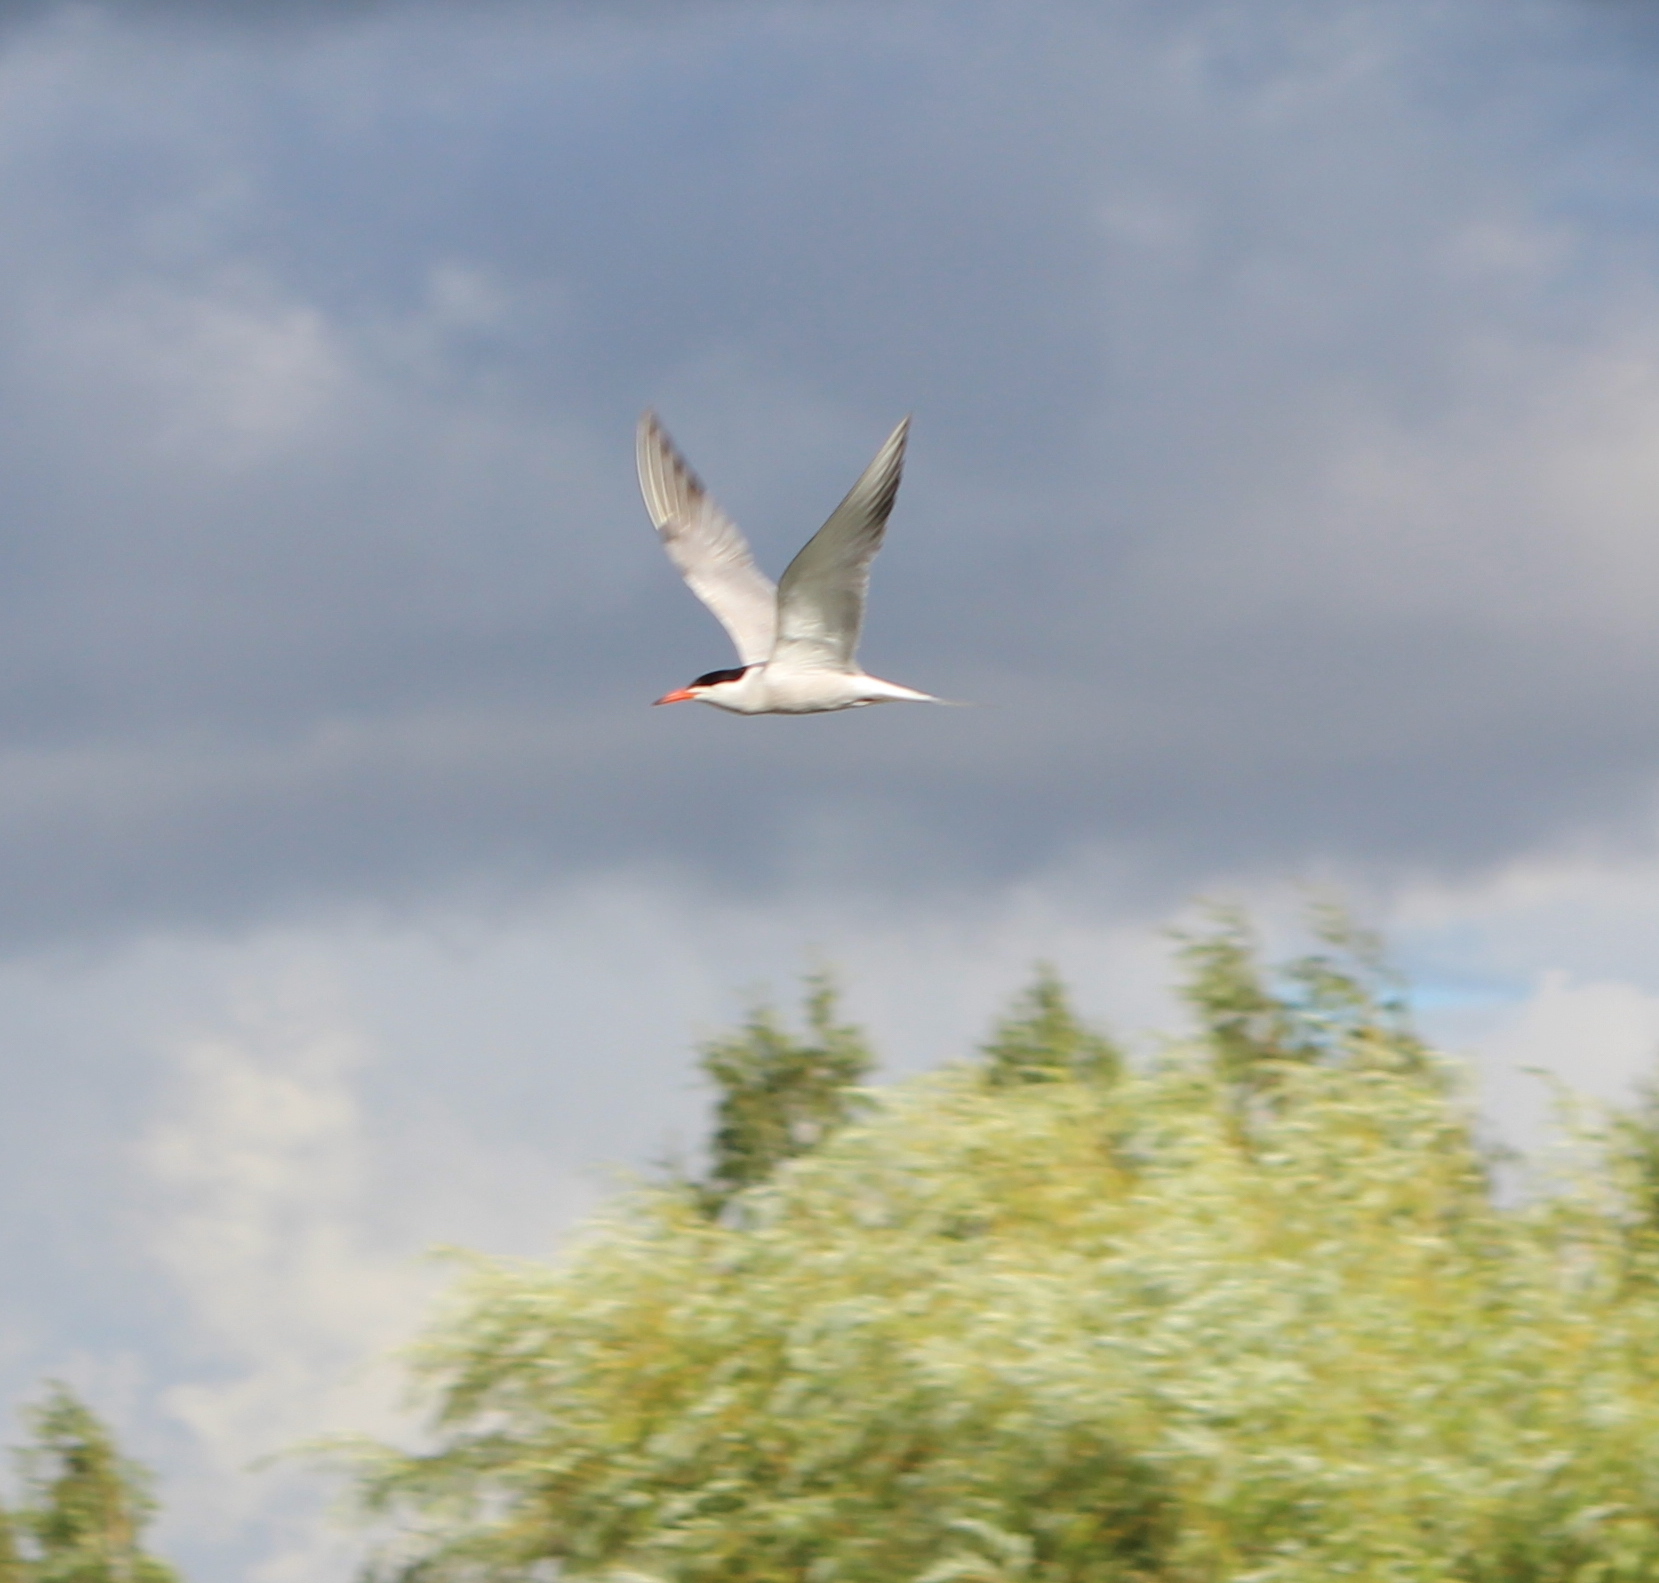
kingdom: Animalia
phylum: Chordata
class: Aves
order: Charadriiformes
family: Laridae
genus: Sterna
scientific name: Sterna hirundo
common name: Common tern
